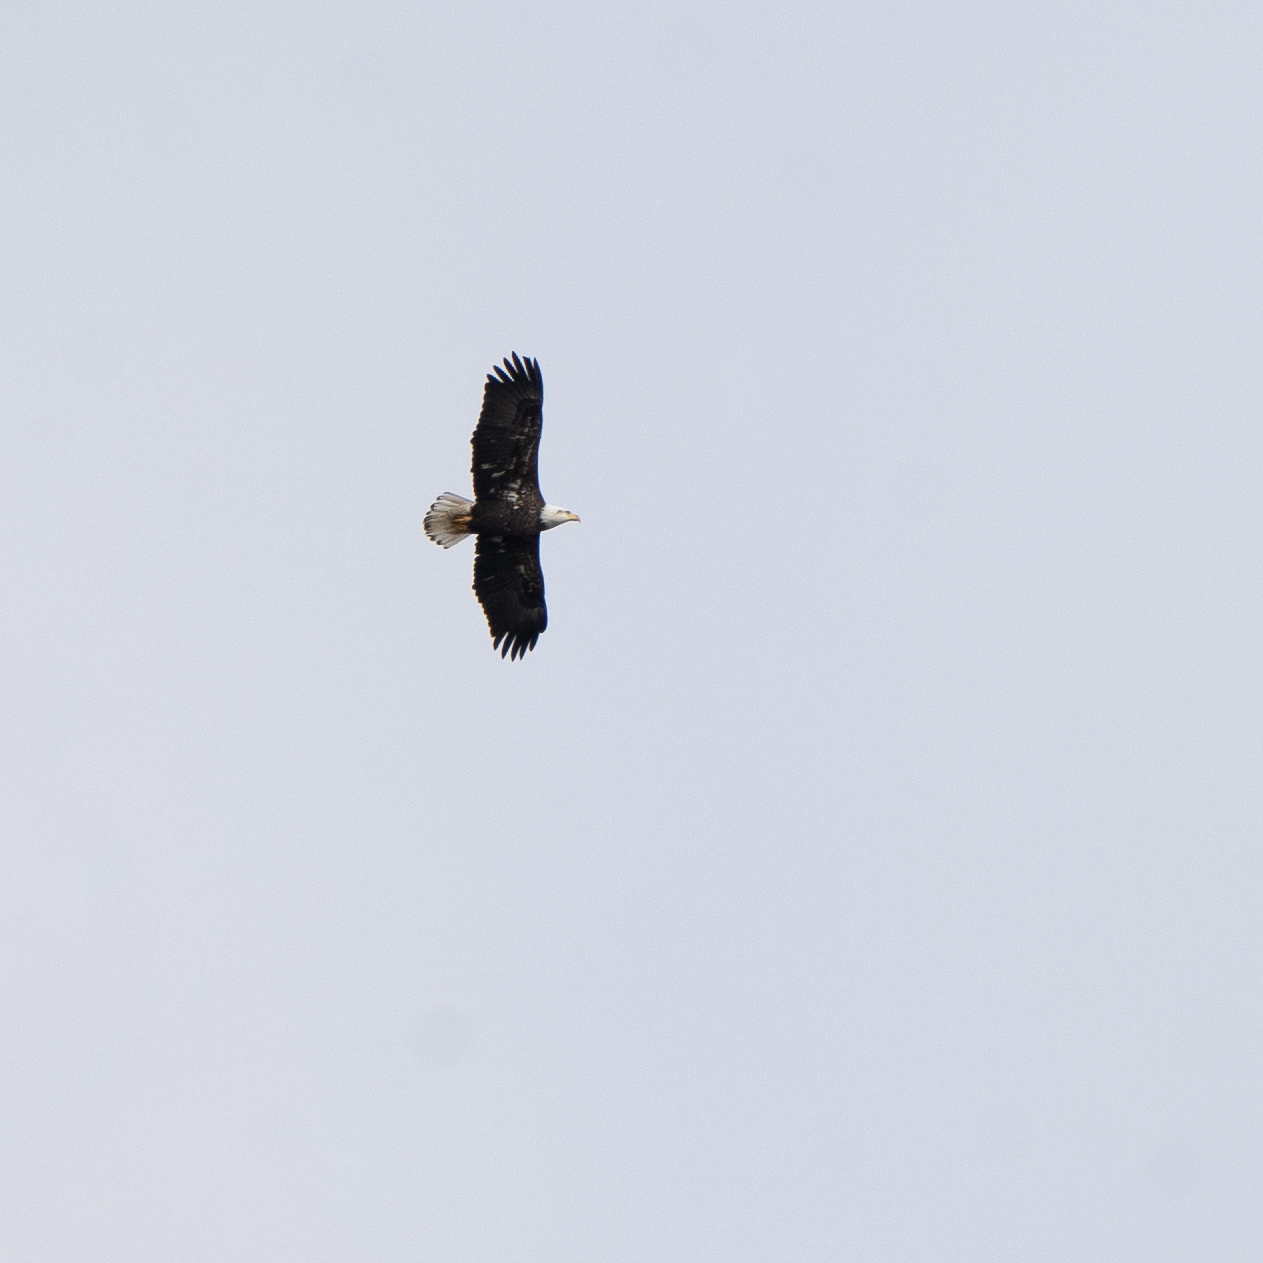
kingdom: Animalia
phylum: Chordata
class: Aves
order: Accipitriformes
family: Accipitridae
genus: Haliaeetus
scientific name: Haliaeetus leucocephalus
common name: Bald eagle
